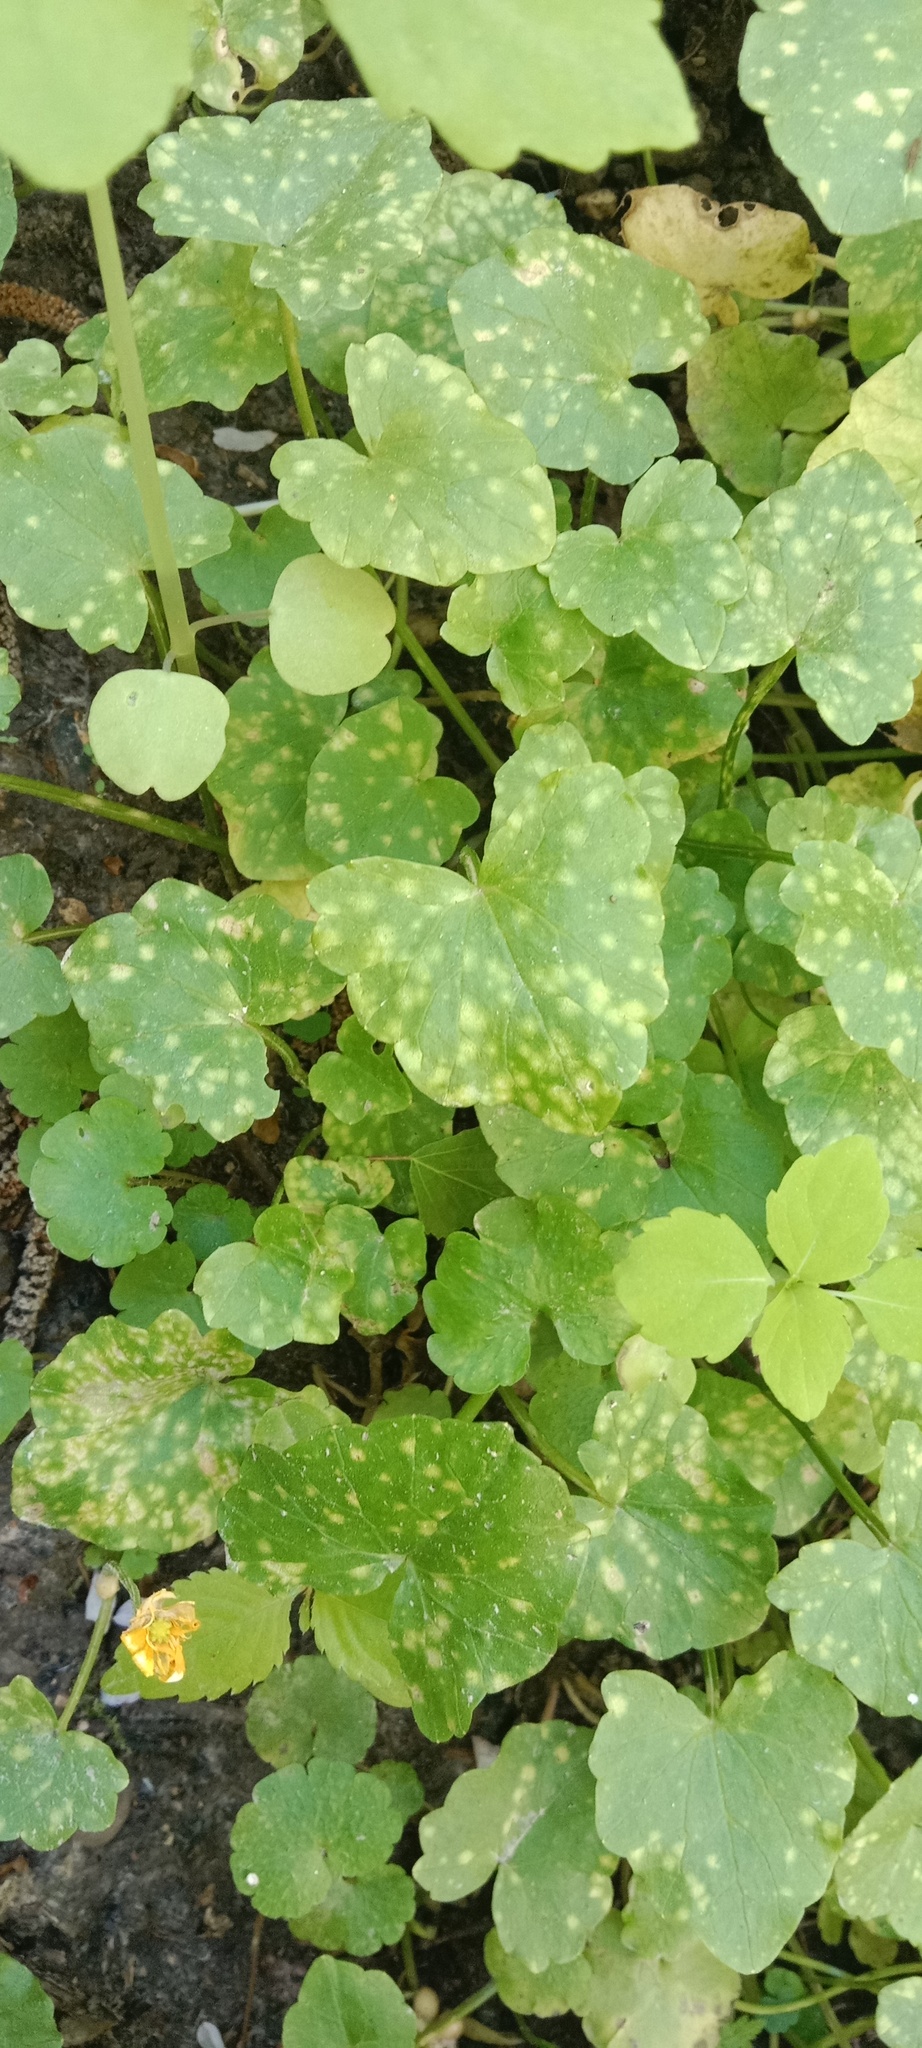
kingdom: Plantae
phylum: Tracheophyta
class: Magnoliopsida
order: Ranunculales
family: Ranunculaceae
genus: Ficaria
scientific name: Ficaria verna
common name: Lesser celandine
